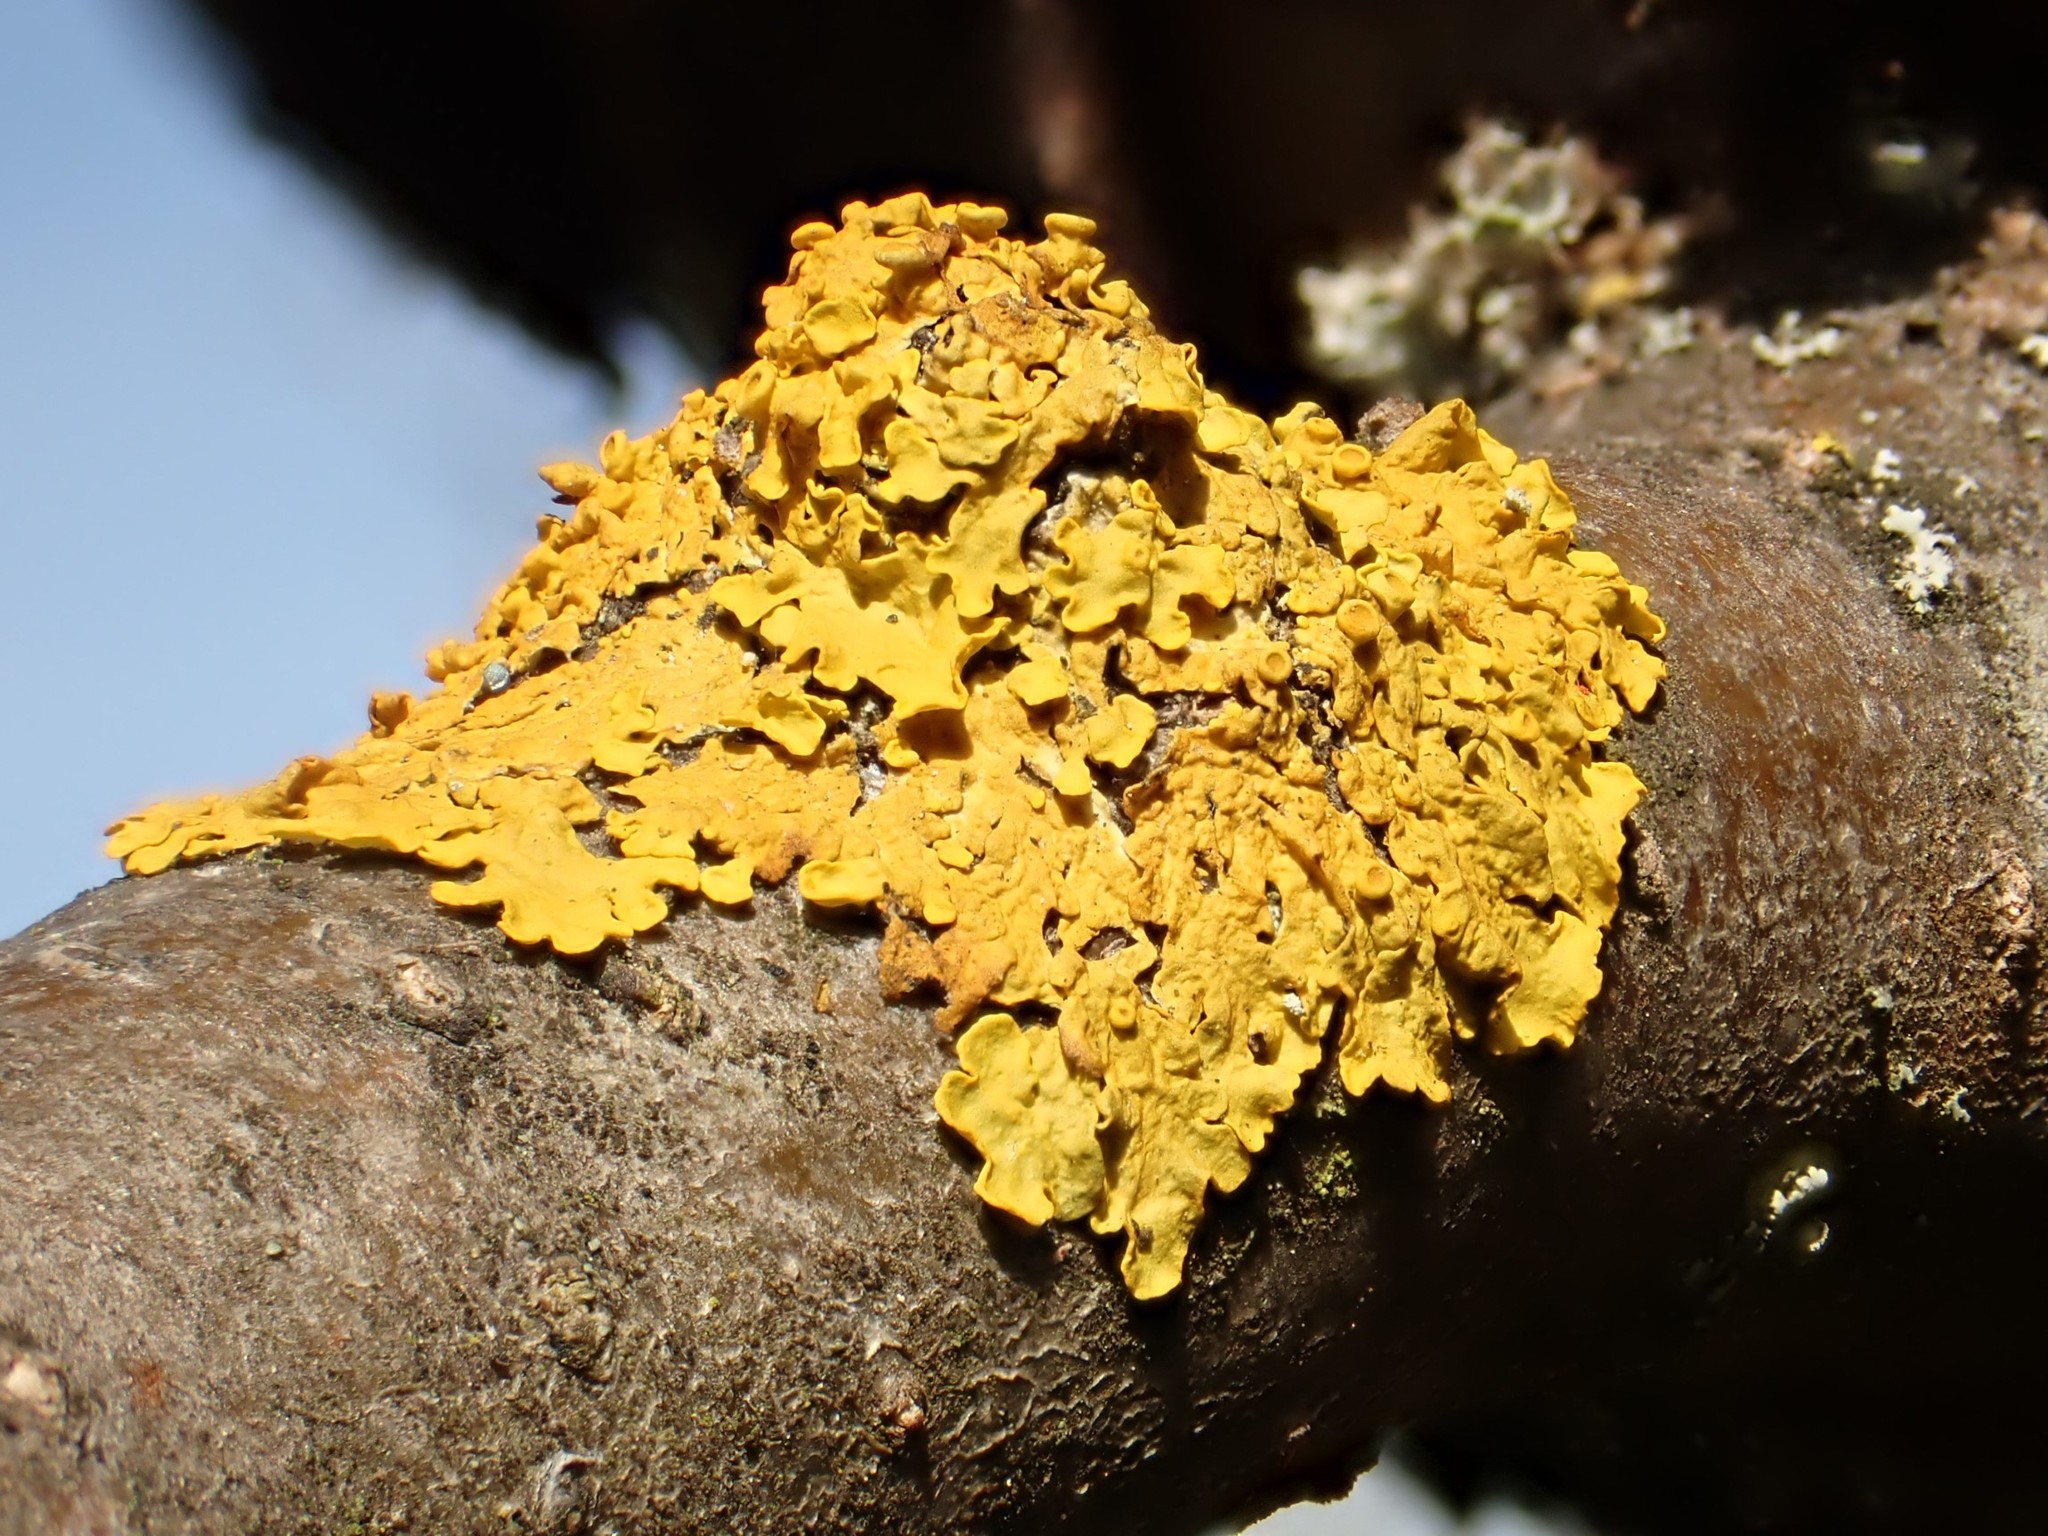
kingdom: Fungi
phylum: Ascomycota
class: Lecanoromycetes
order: Teloschistales
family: Teloschistaceae
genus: Xanthoria
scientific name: Xanthoria parietina
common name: Common orange lichen
